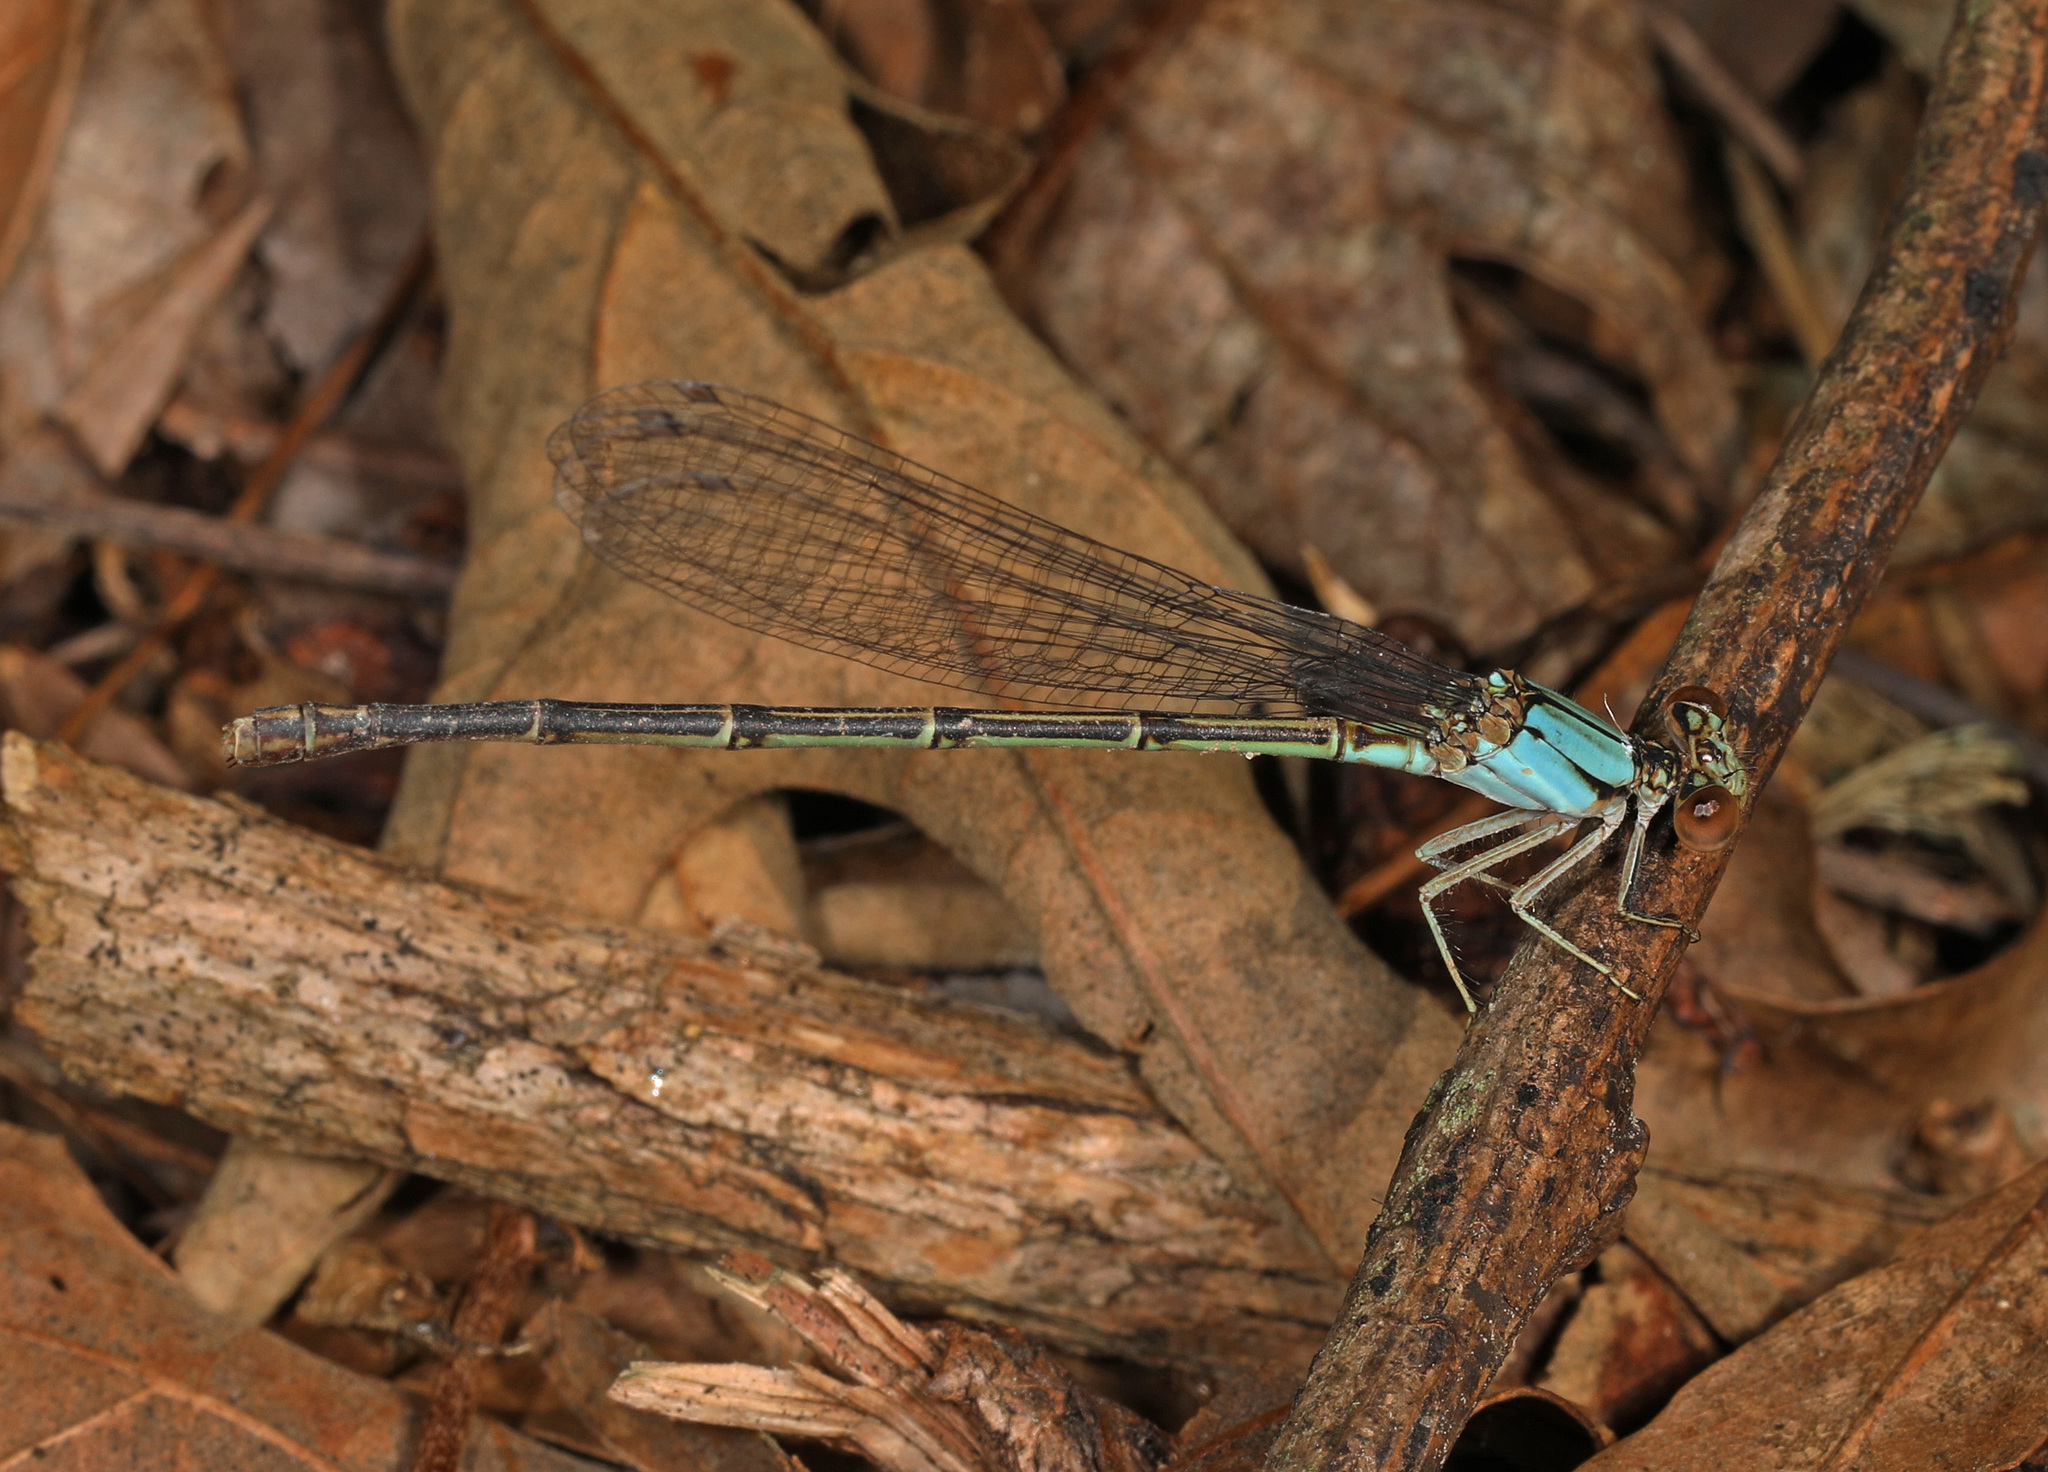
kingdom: Animalia
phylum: Arthropoda
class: Insecta
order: Odonata
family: Coenagrionidae
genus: Argia
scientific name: Argia apicalis
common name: Blue-fronted dancer
